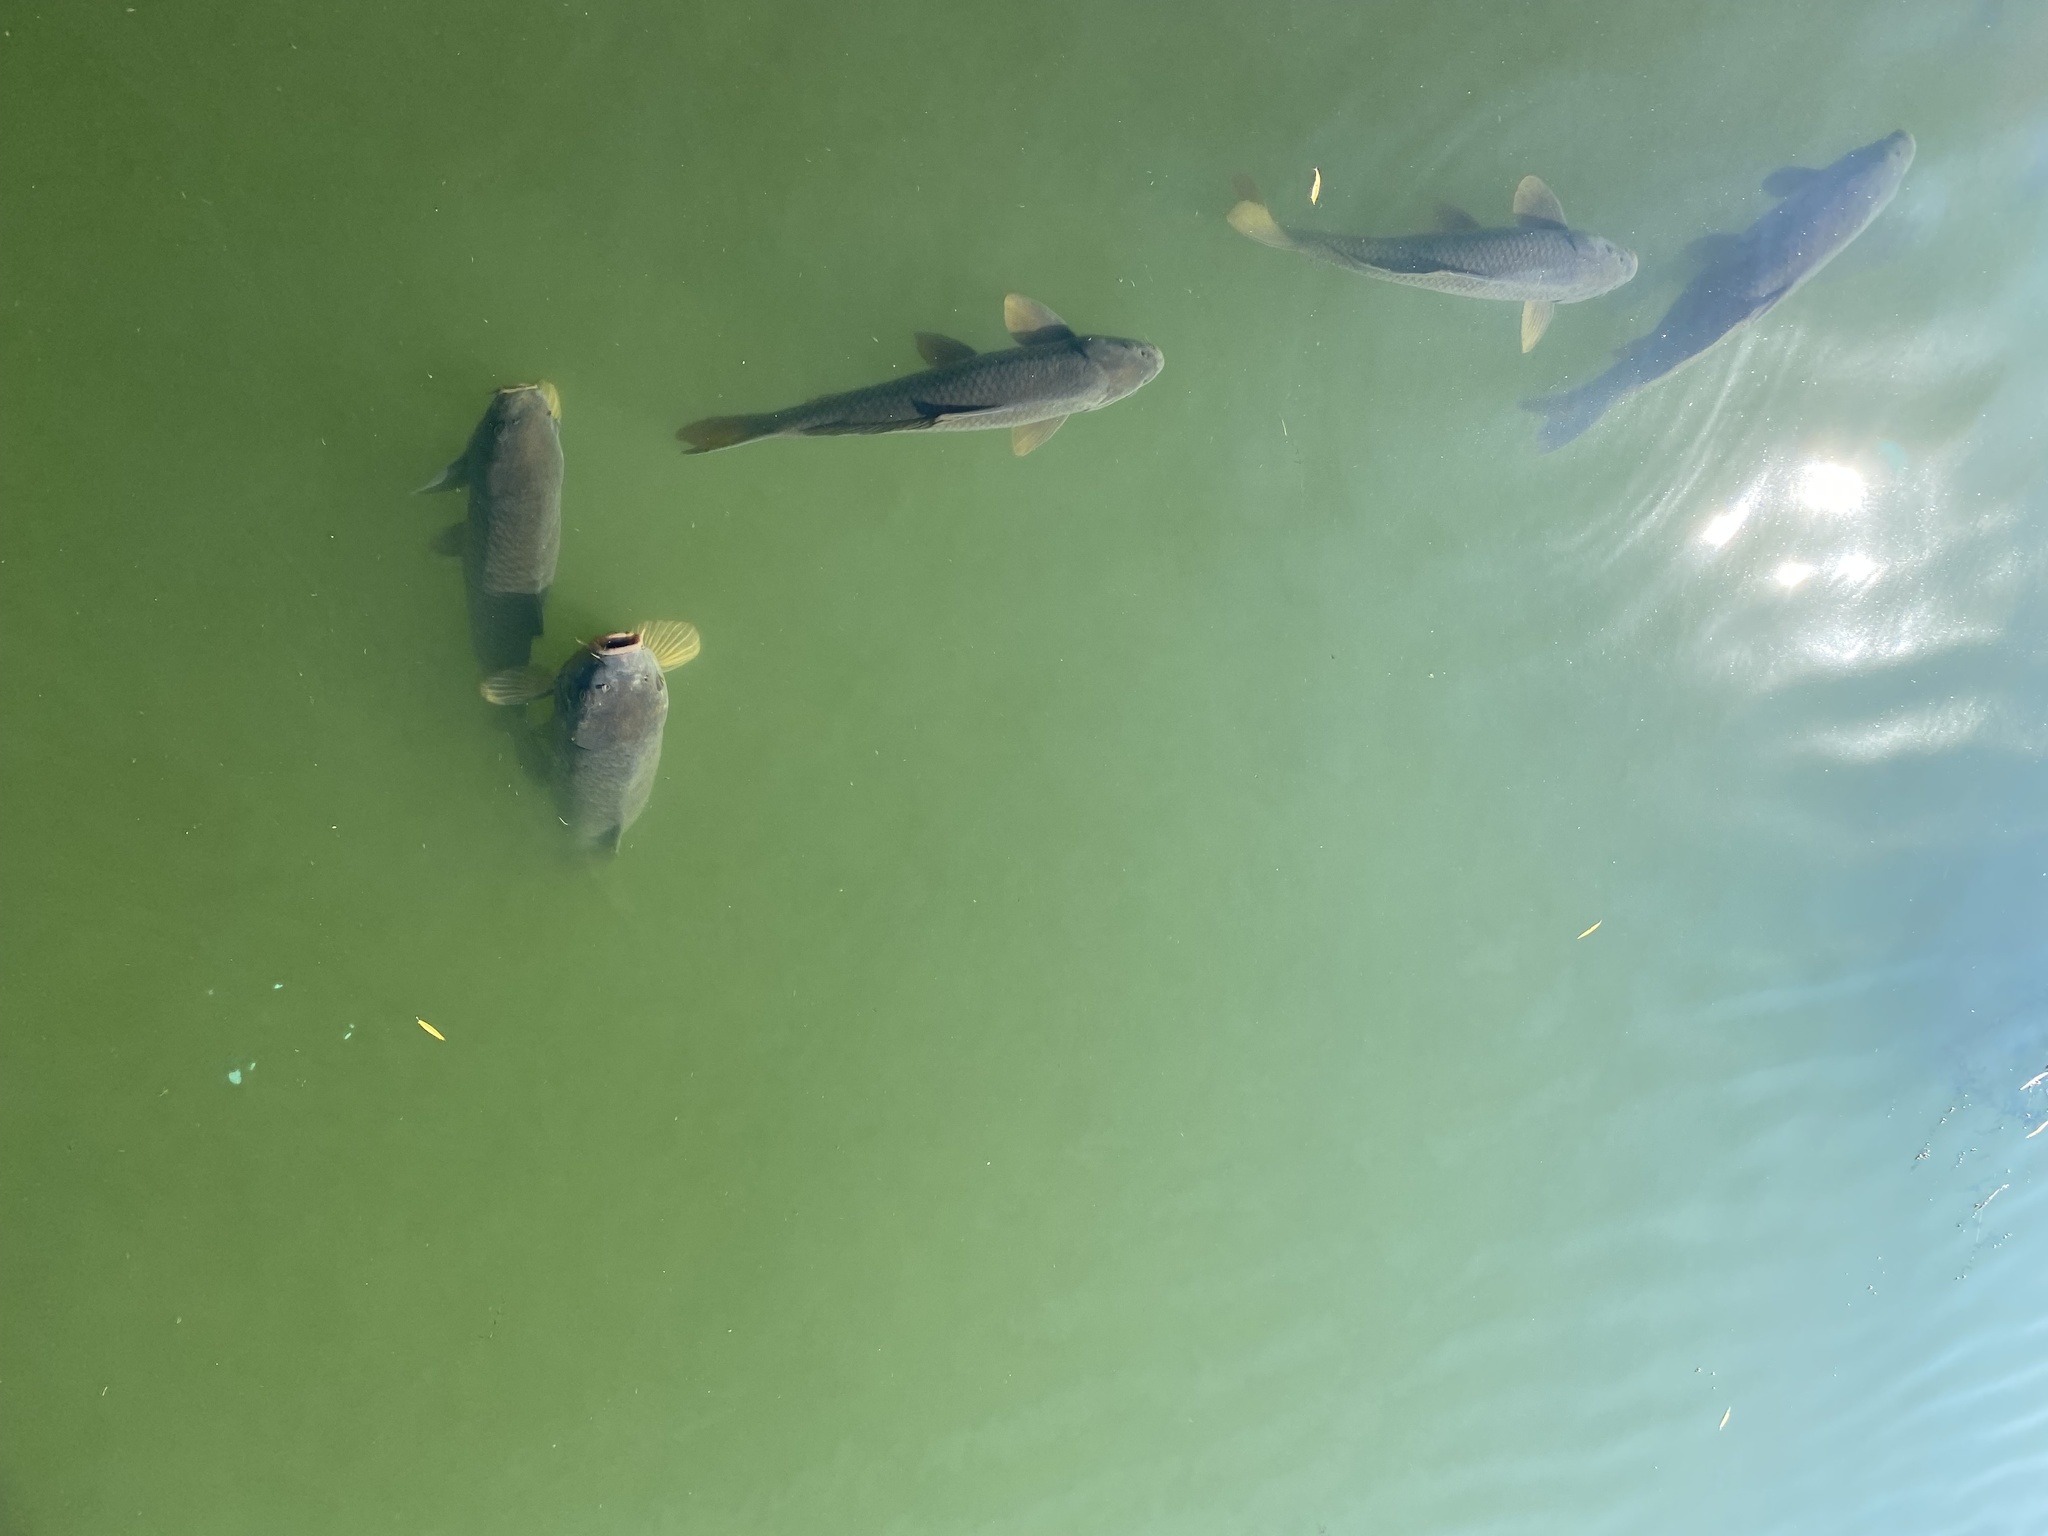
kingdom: Animalia
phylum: Chordata
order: Cypriniformes
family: Cyprinidae
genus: Cyprinus
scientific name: Cyprinus carpio
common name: Common carp
